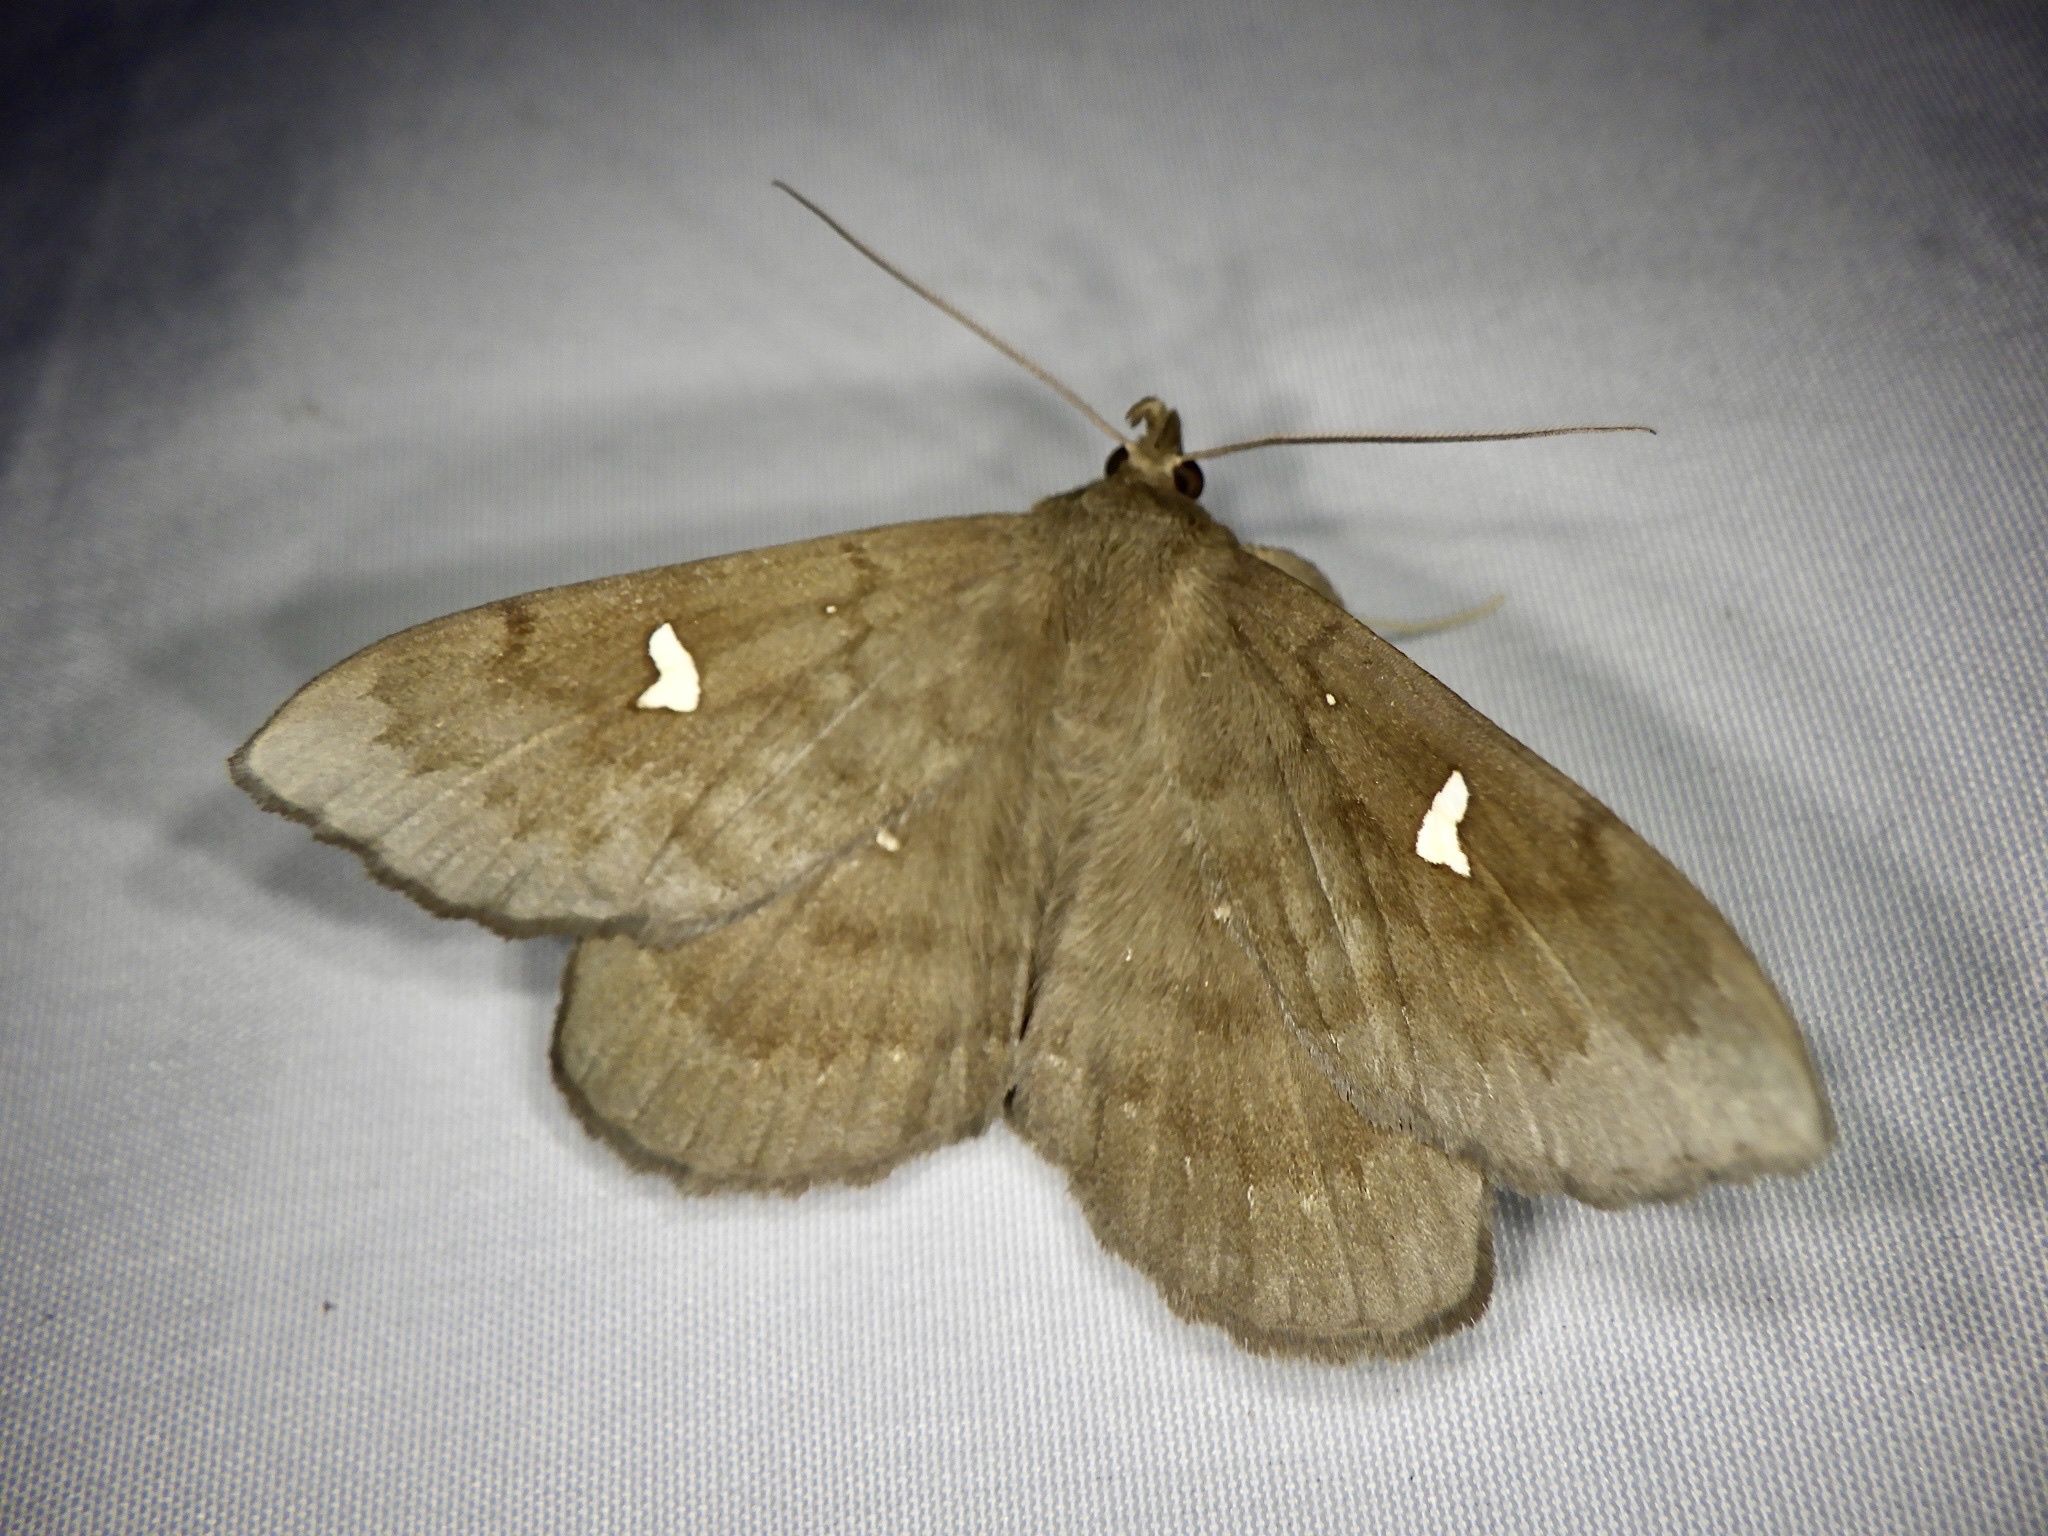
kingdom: Animalia
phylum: Arthropoda
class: Insecta
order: Lepidoptera
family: Erebidae
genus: Edessena
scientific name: Edessena hamada
